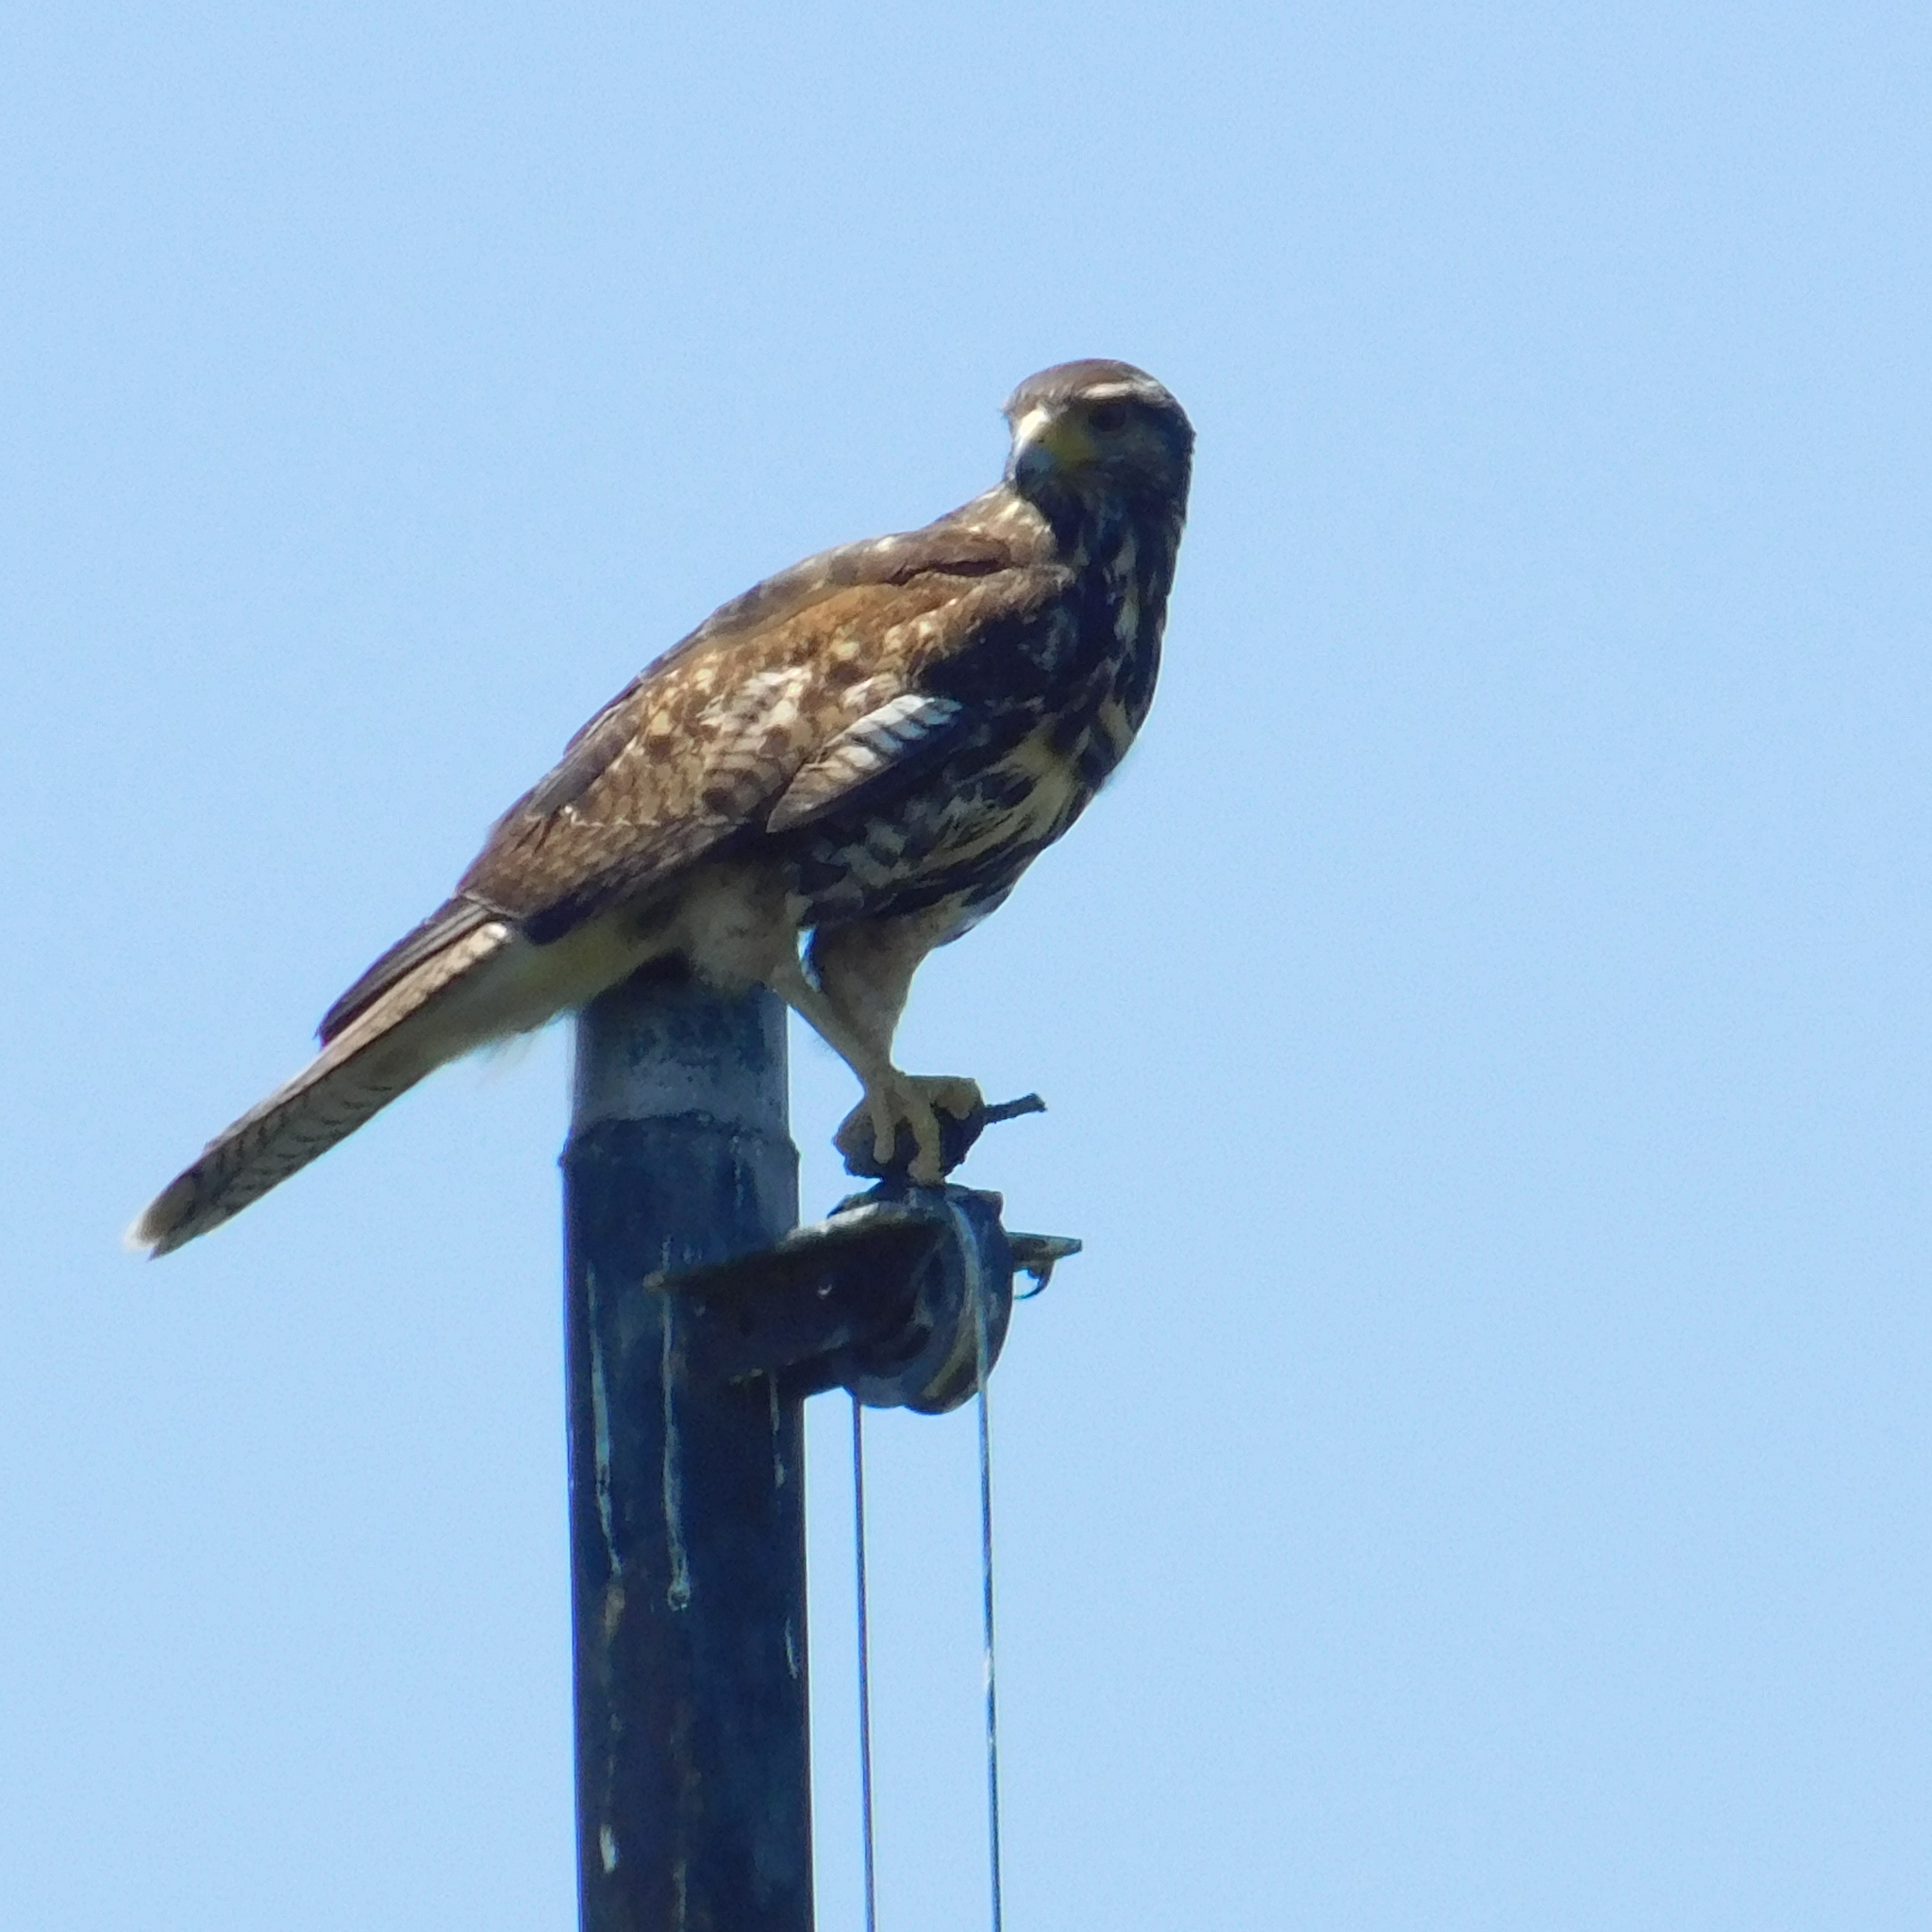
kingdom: Animalia
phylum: Chordata
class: Aves
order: Accipitriformes
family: Accipitridae
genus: Parabuteo
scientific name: Parabuteo unicinctus
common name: Harris's hawk
